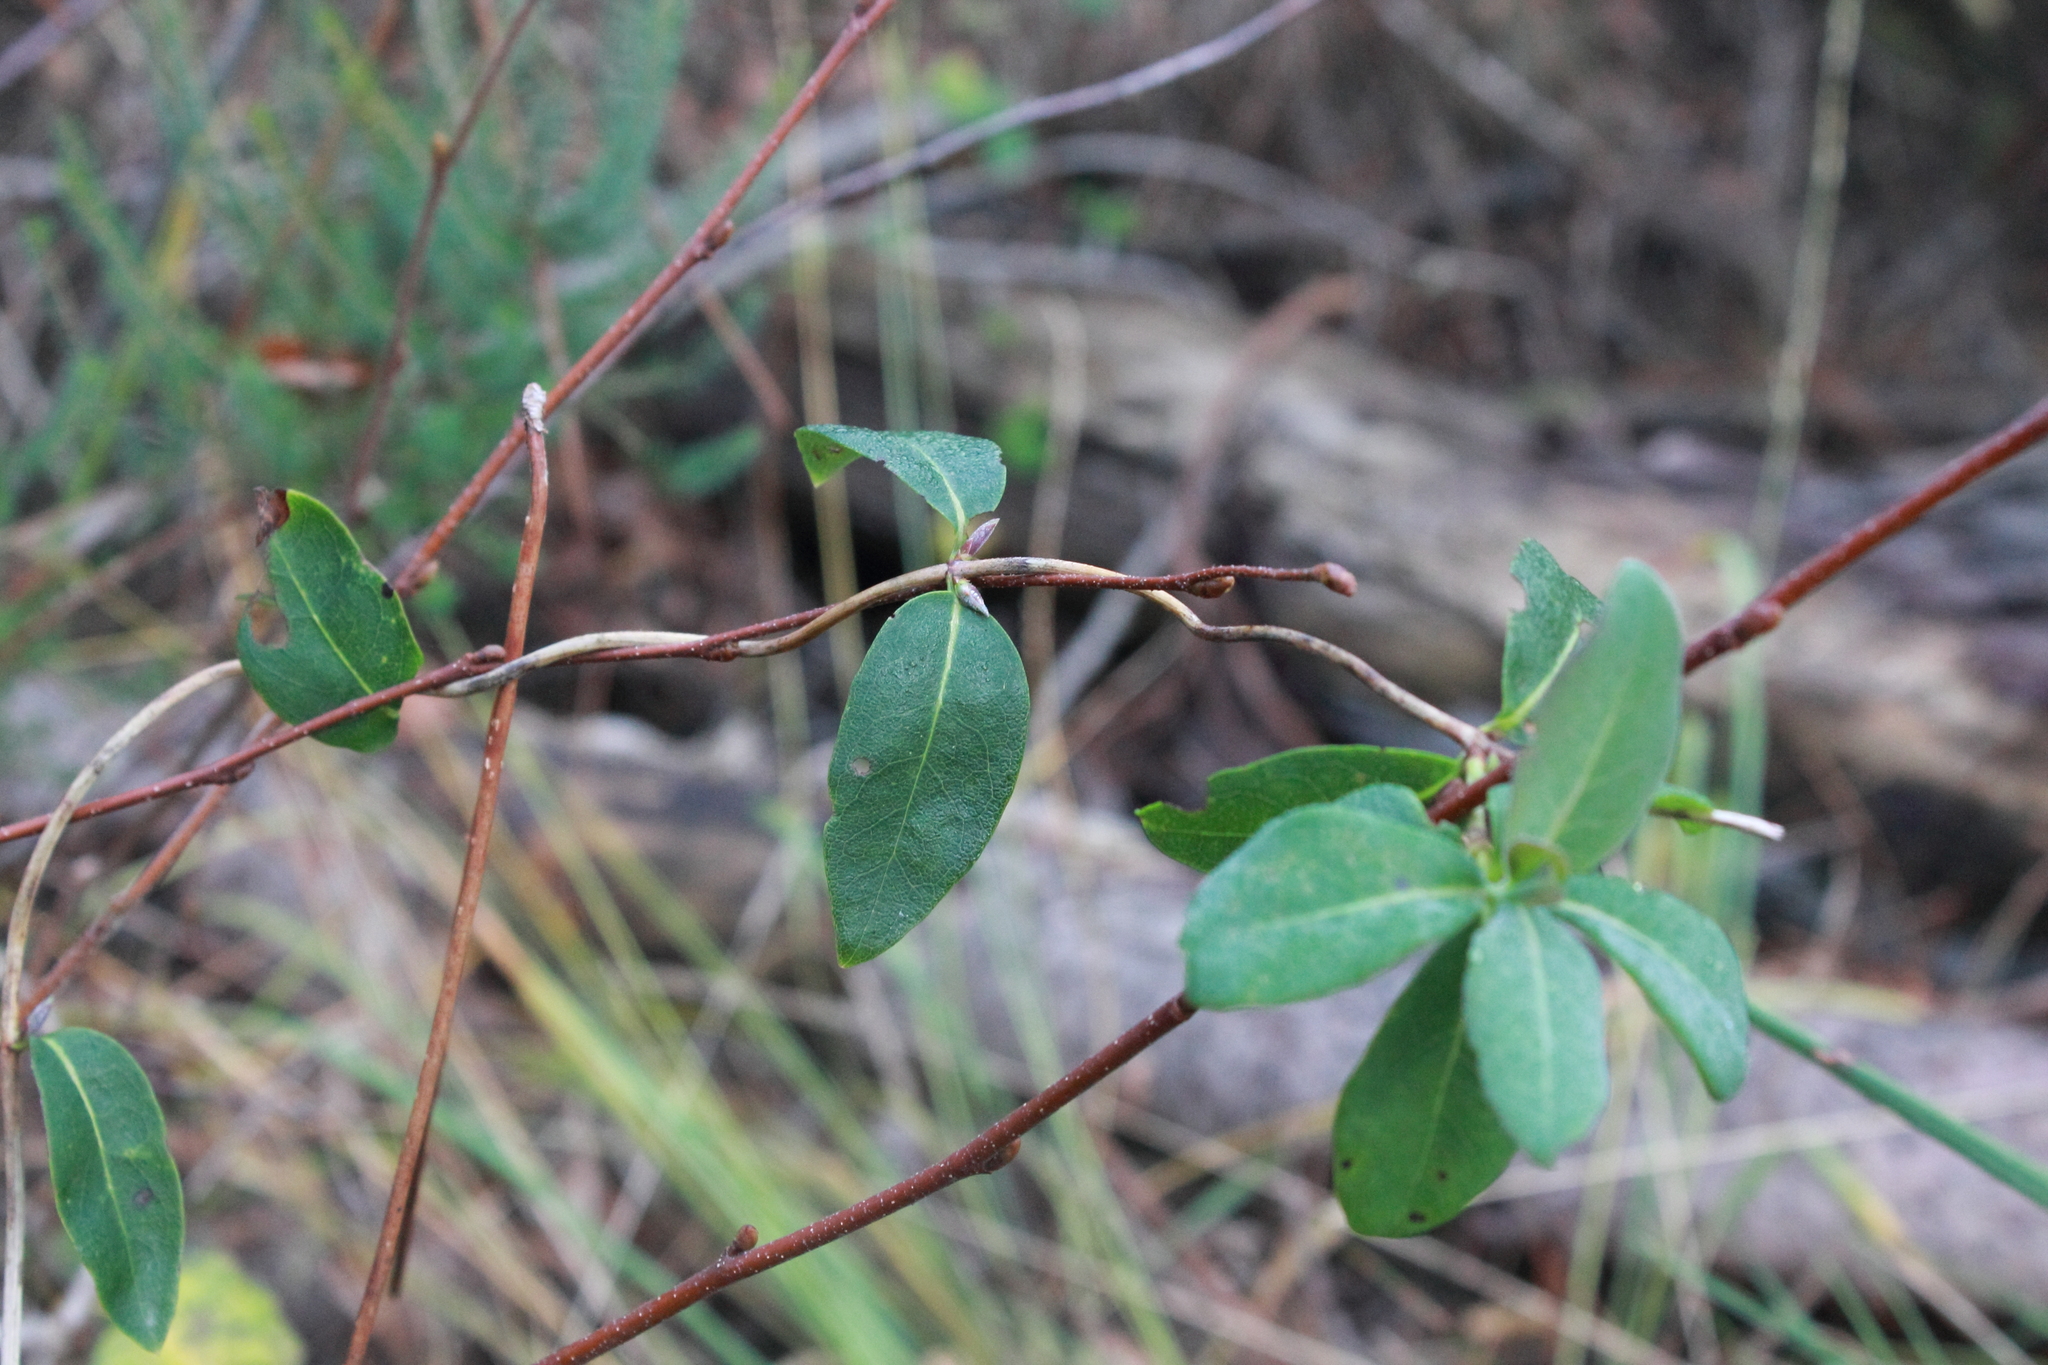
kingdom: Plantae
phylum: Tracheophyta
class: Magnoliopsida
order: Dipsacales
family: Caprifoliaceae
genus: Lonicera
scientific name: Lonicera periclymenum
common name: European honeysuckle
